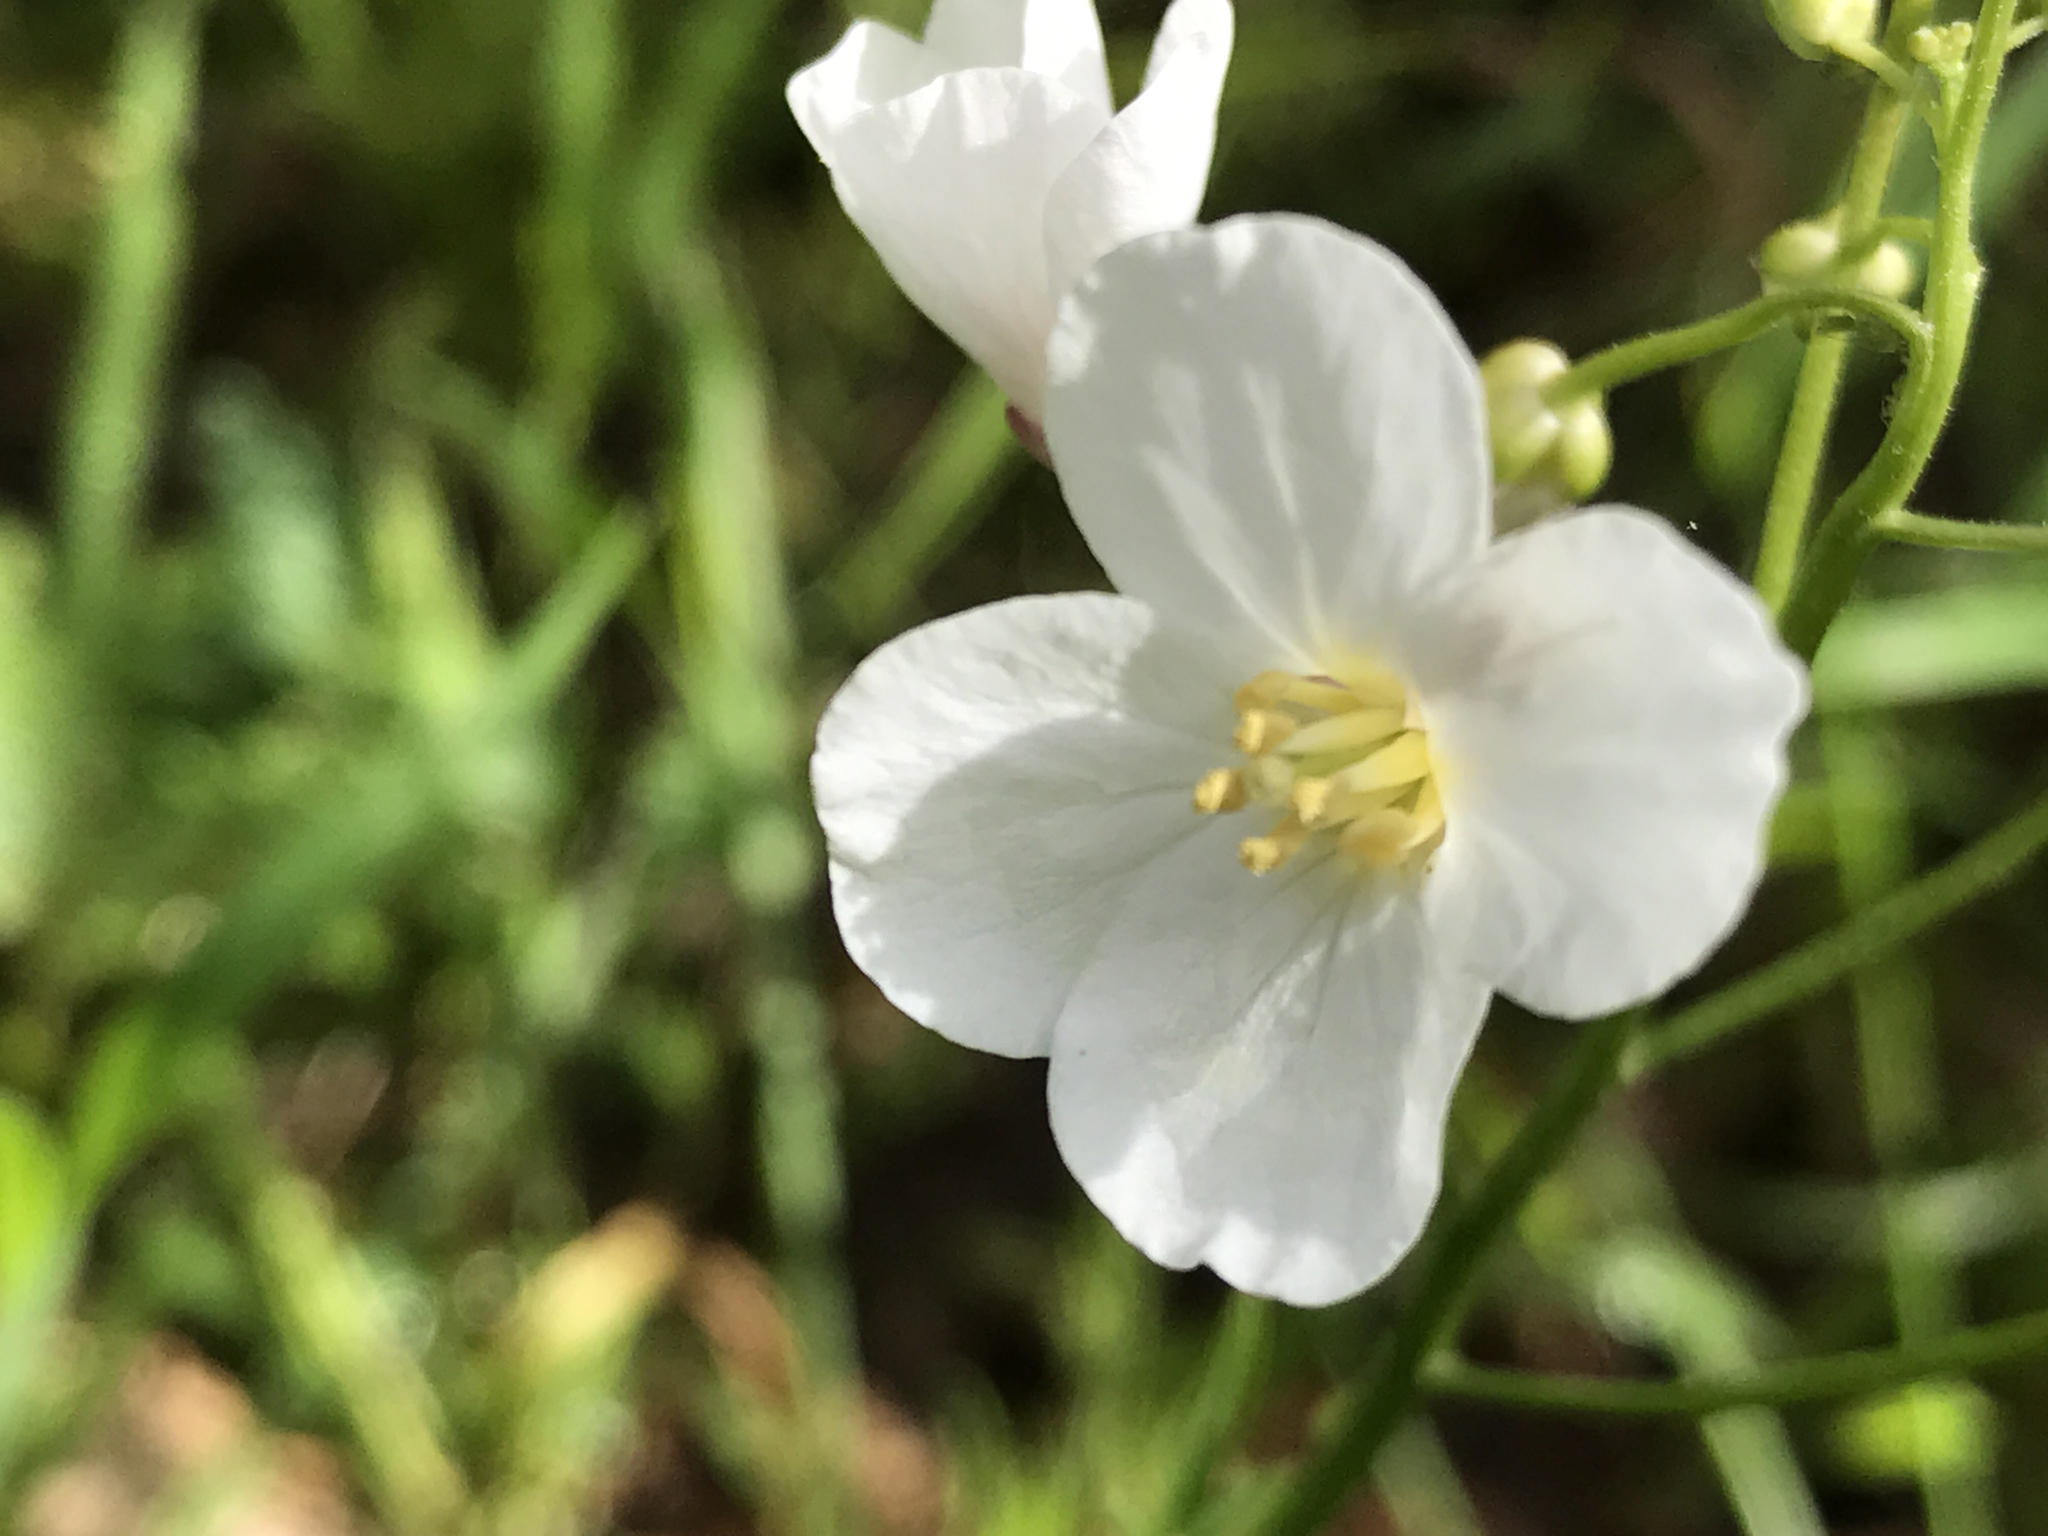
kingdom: Plantae
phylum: Tracheophyta
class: Magnoliopsida
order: Brassicales
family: Brassicaceae
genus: Cardamine
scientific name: Cardamine californica
